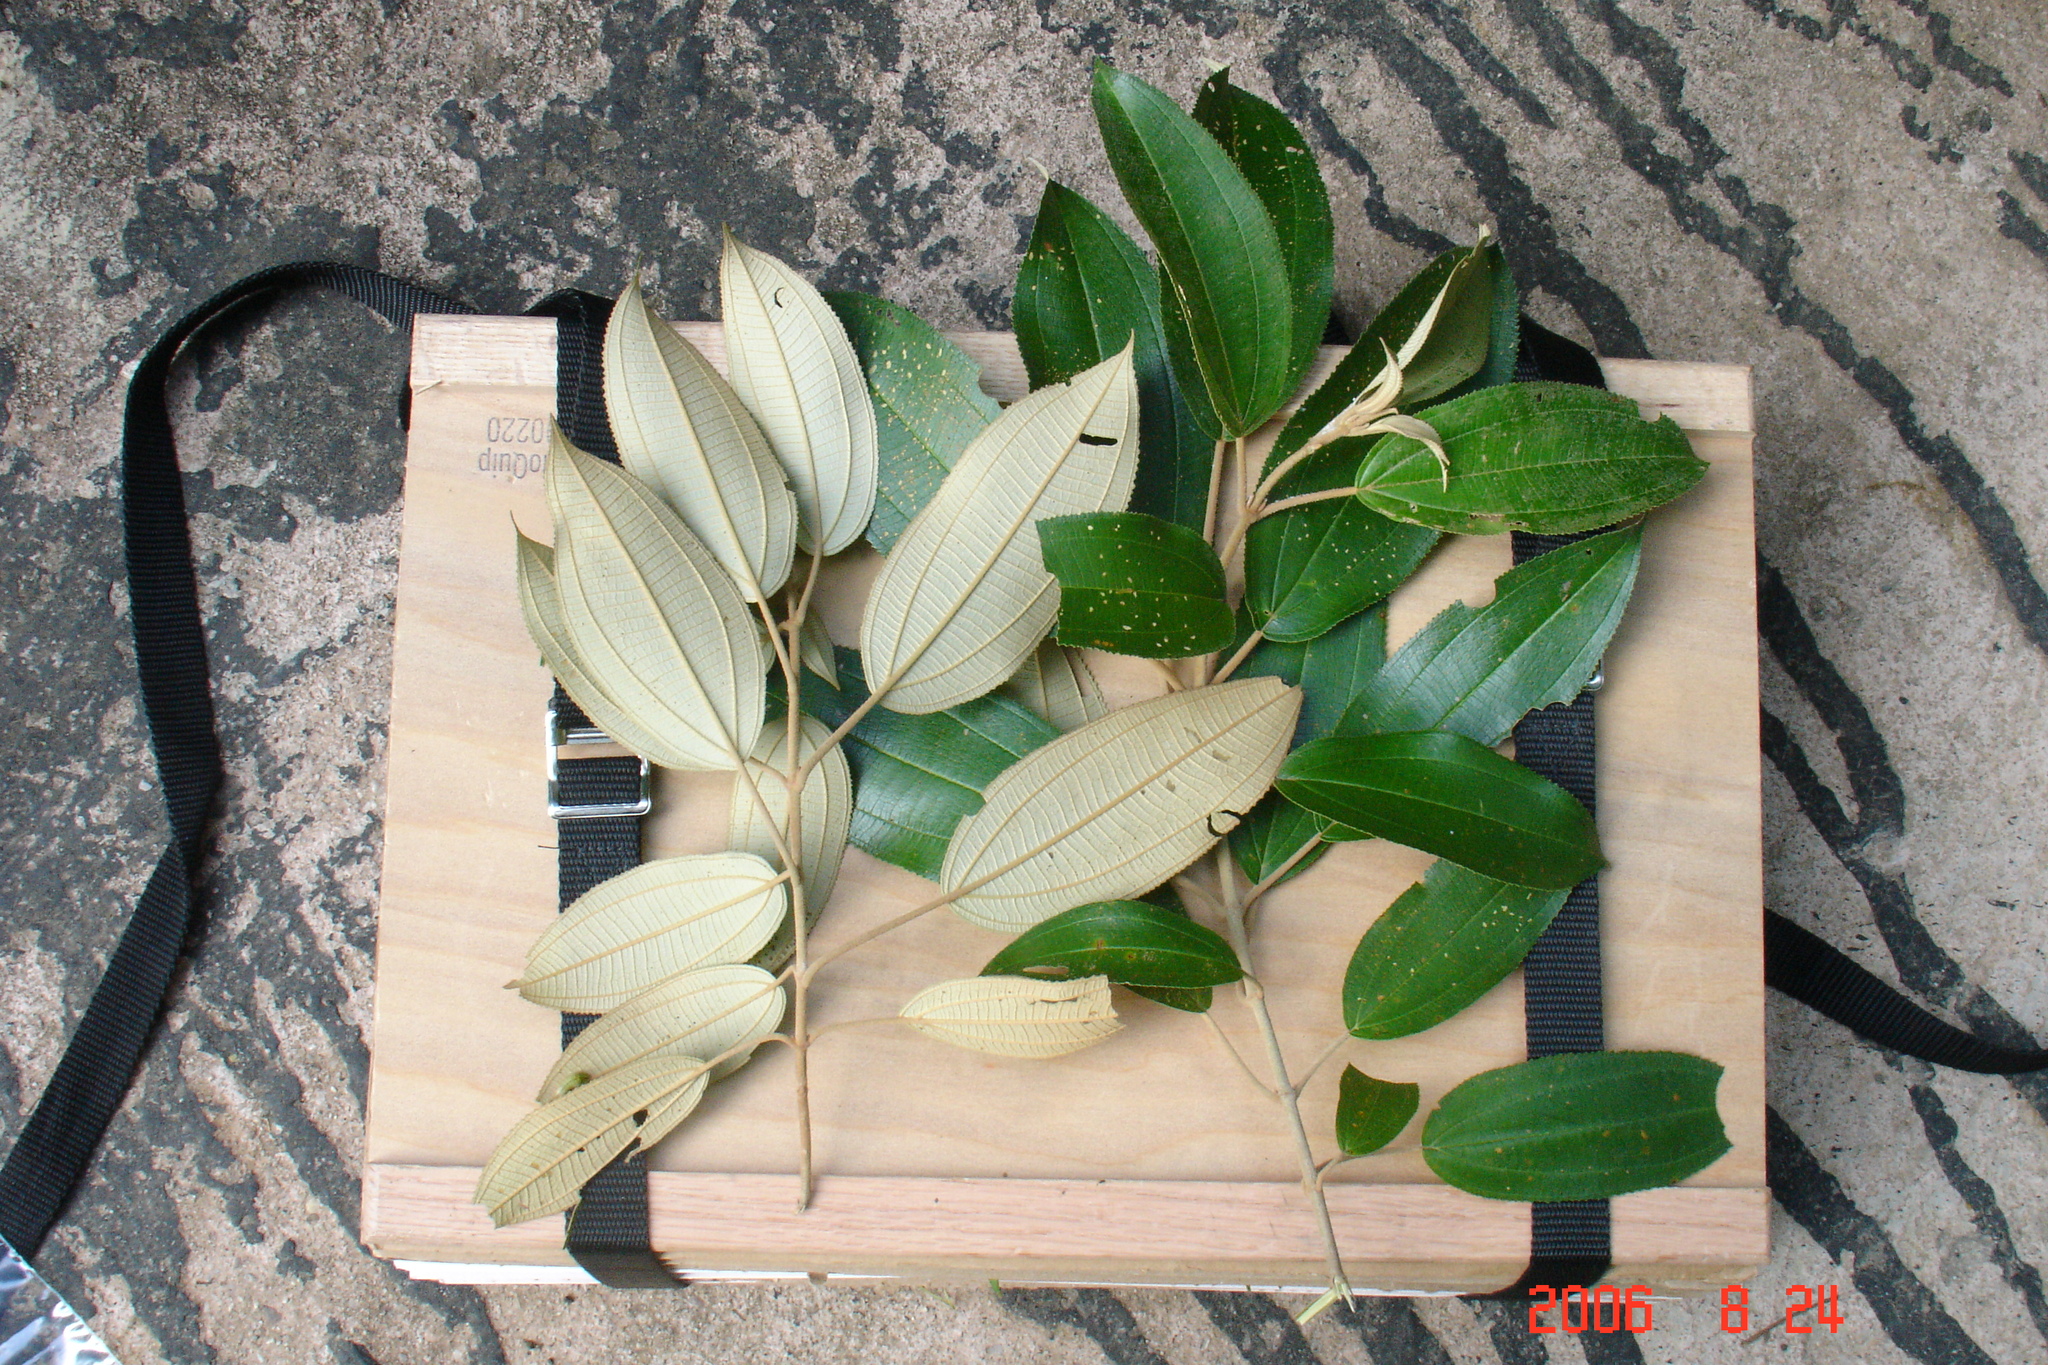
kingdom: Plantae
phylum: Tracheophyta
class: Magnoliopsida
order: Myrtales
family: Melastomataceae
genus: Miconia
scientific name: Miconia xalapensis
